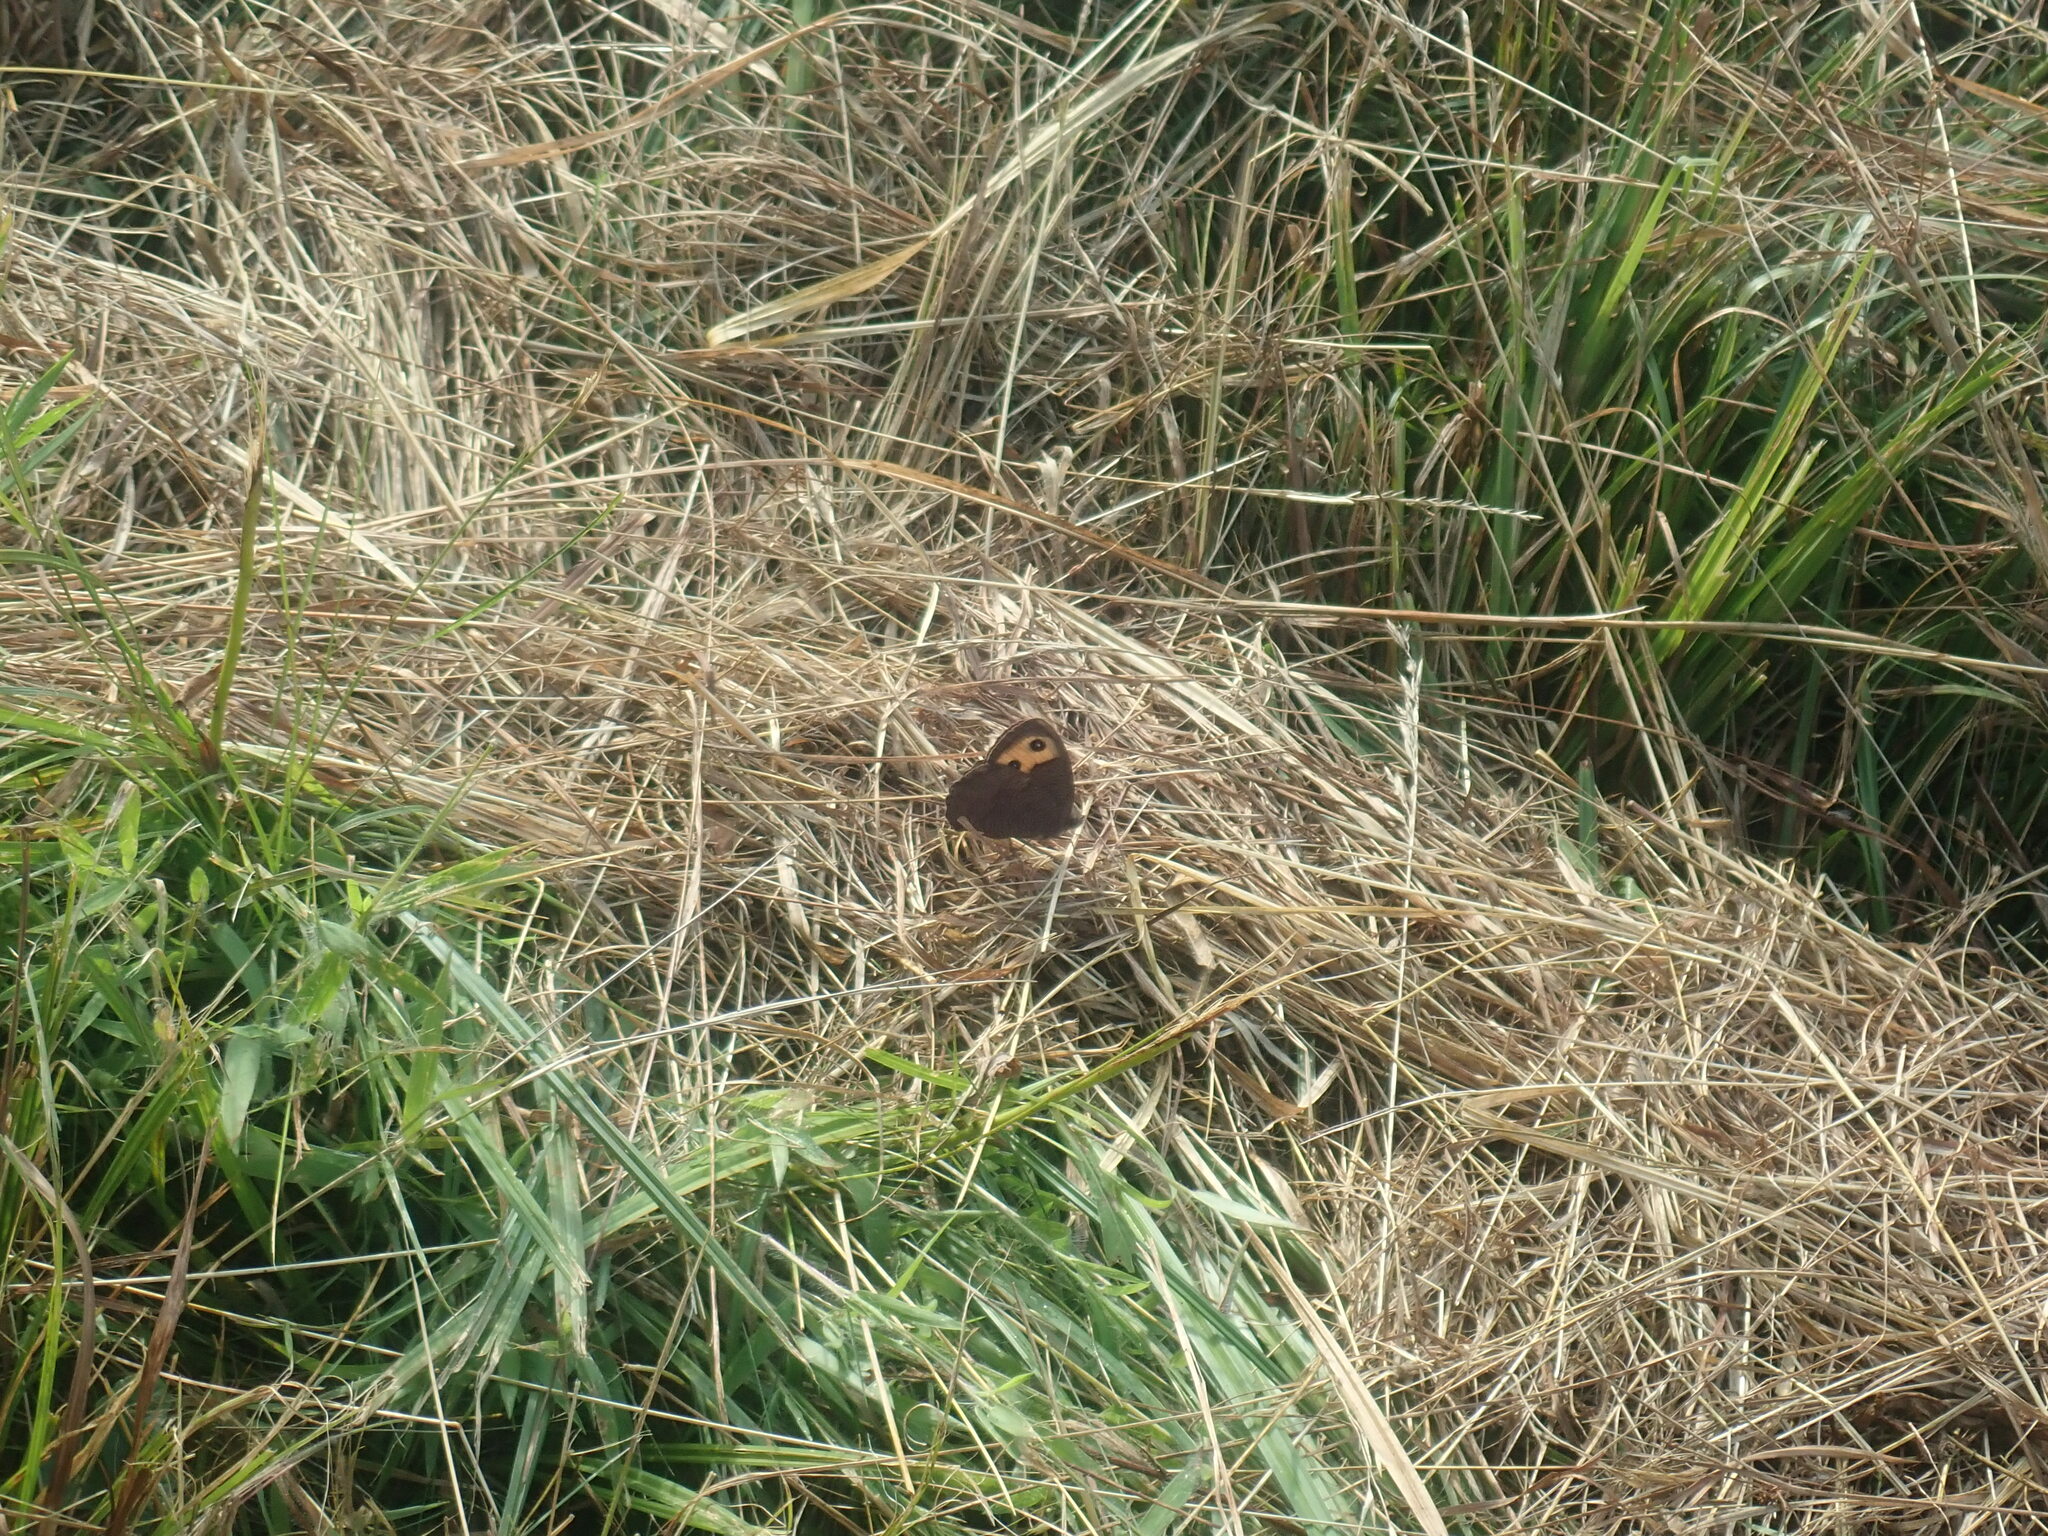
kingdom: Animalia
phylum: Arthropoda
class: Insecta
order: Lepidoptera
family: Nymphalidae
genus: Cercyonis
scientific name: Cercyonis pegala
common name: Common wood-nymph
